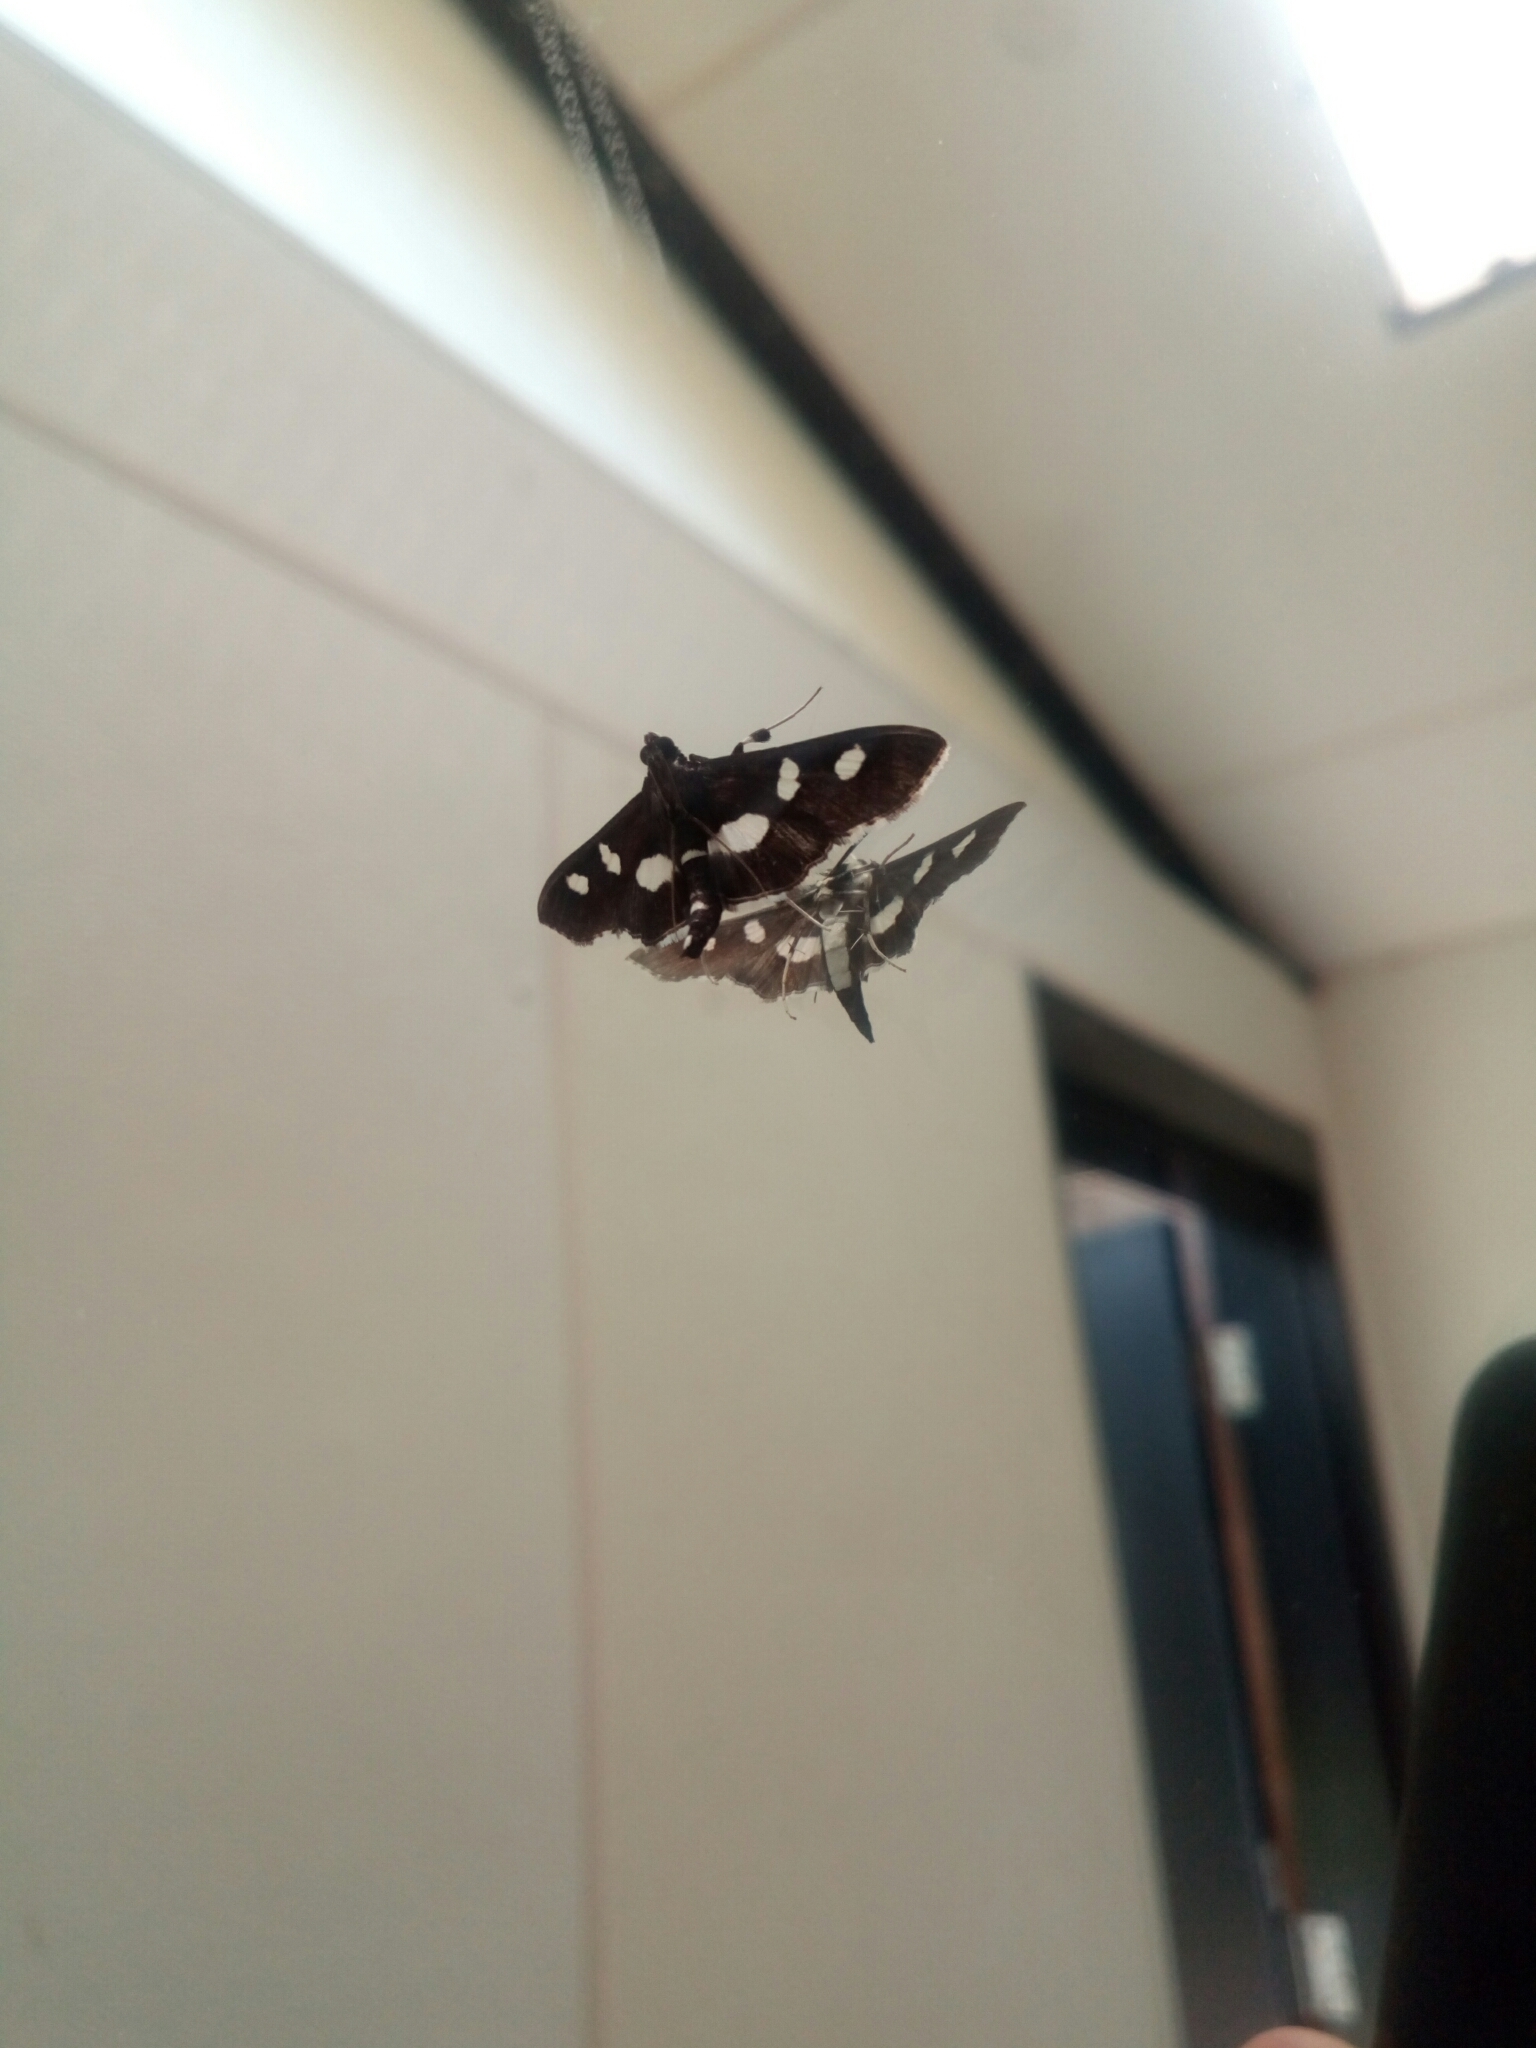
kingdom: Animalia
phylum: Arthropoda
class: Insecta
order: Lepidoptera
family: Crambidae
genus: Desmia
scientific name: Desmia funeralis
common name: Grape leaf folder moth
